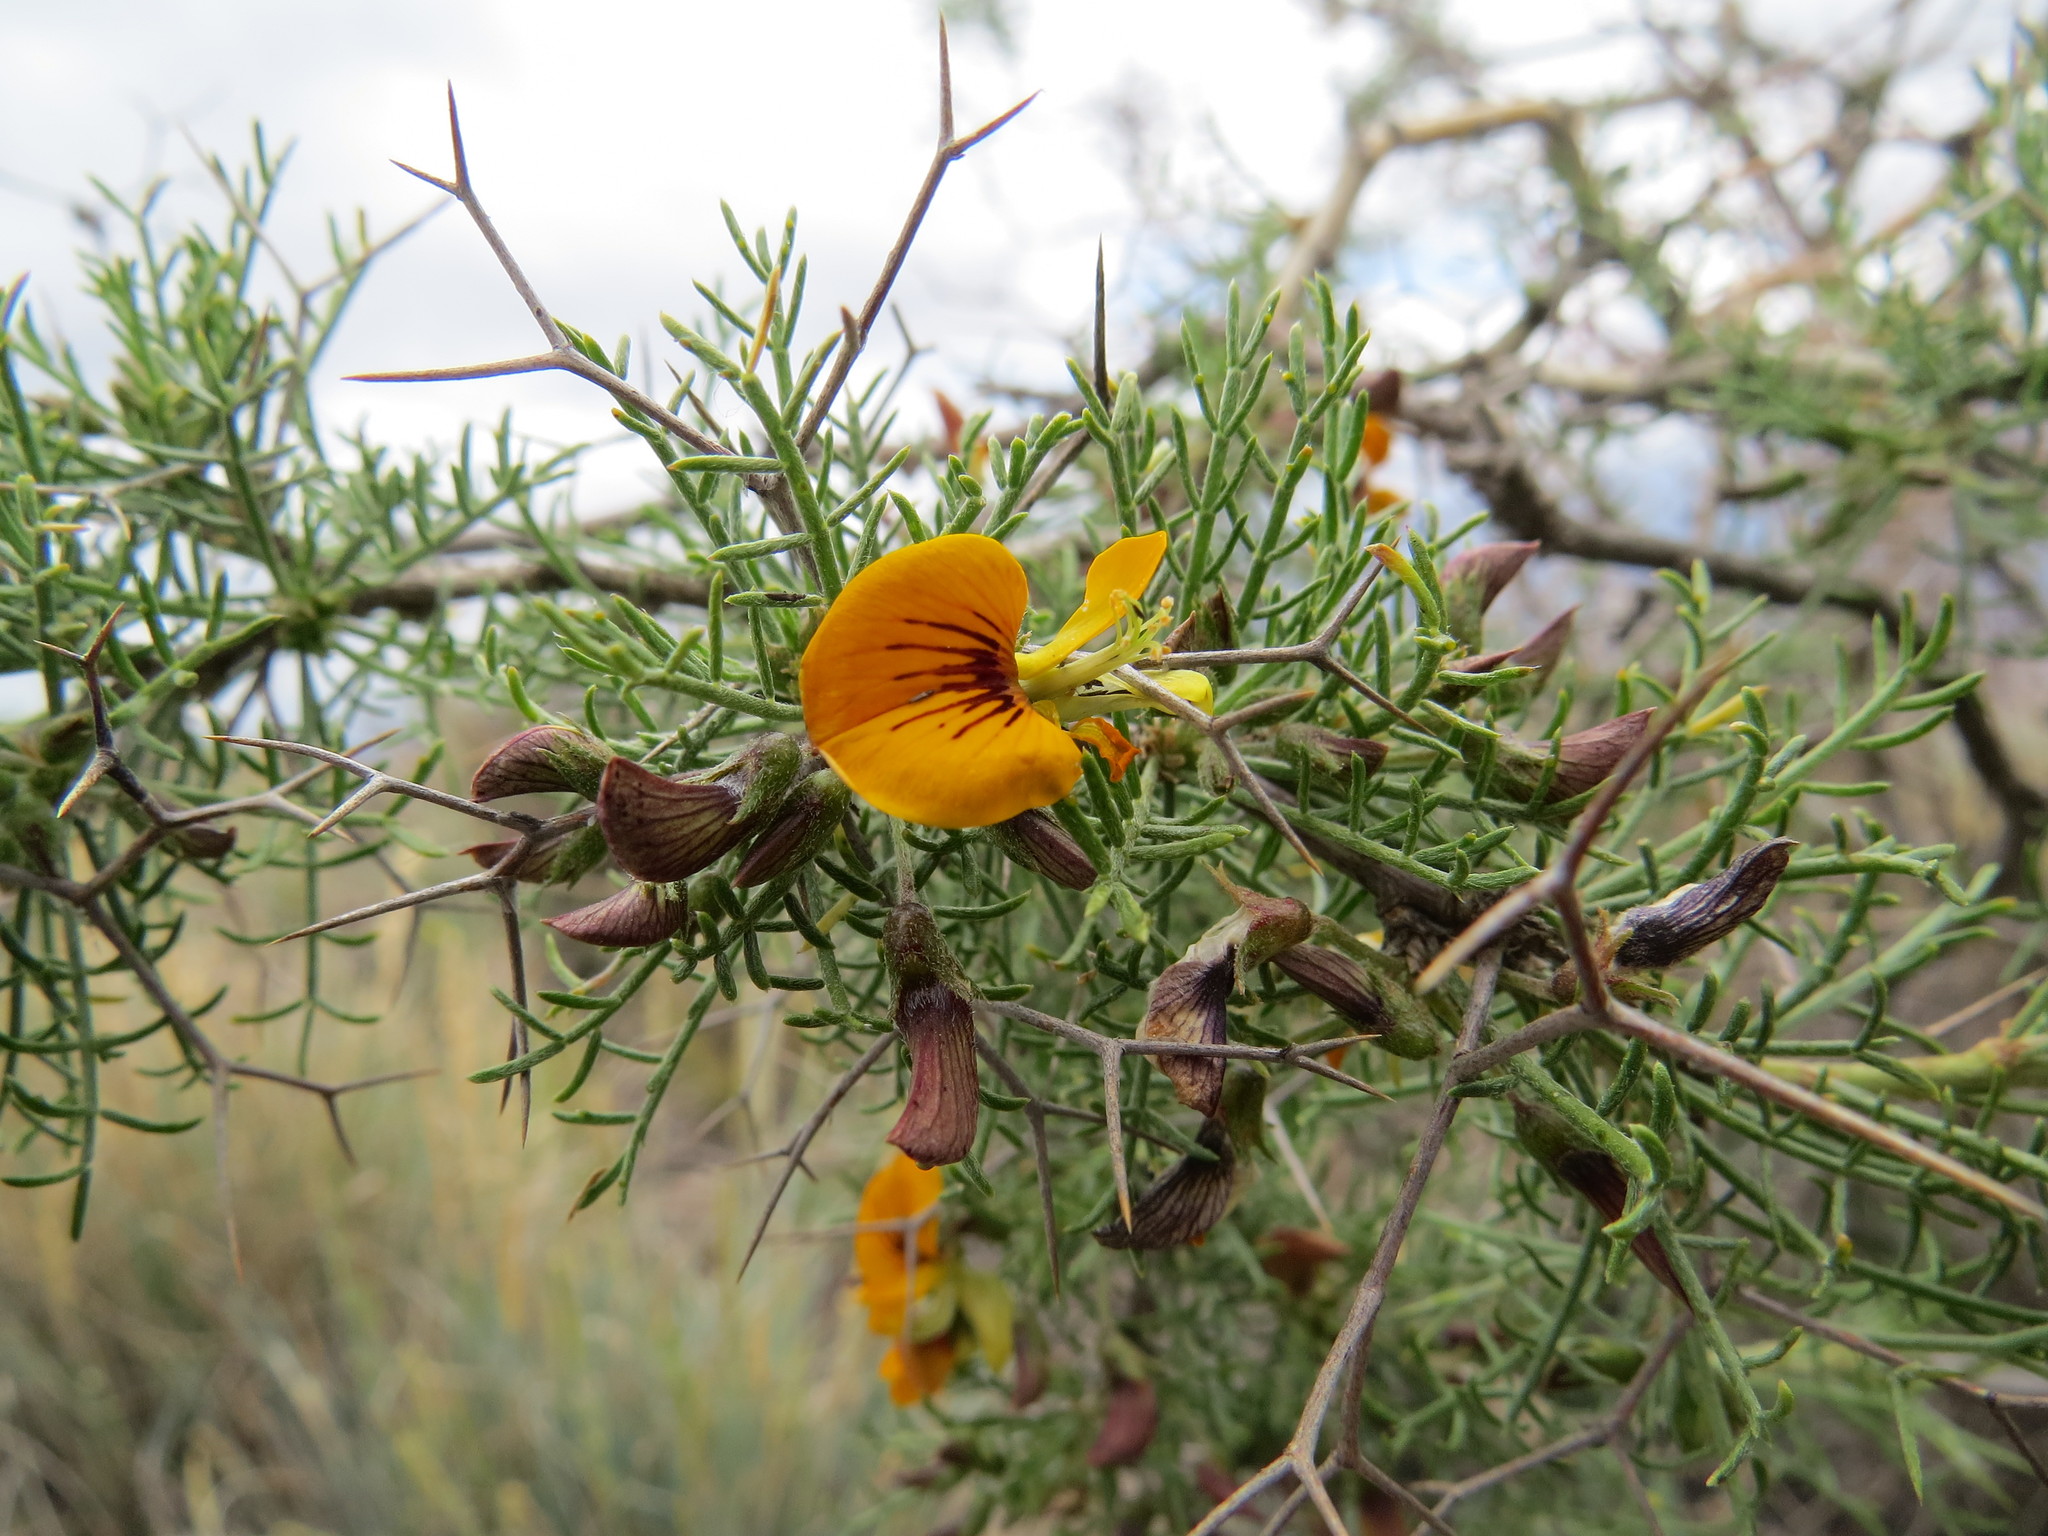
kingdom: Plantae
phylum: Tracheophyta
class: Magnoliopsida
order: Fabales
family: Fabaceae
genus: Adesmia
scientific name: Adesmia pinifolia
